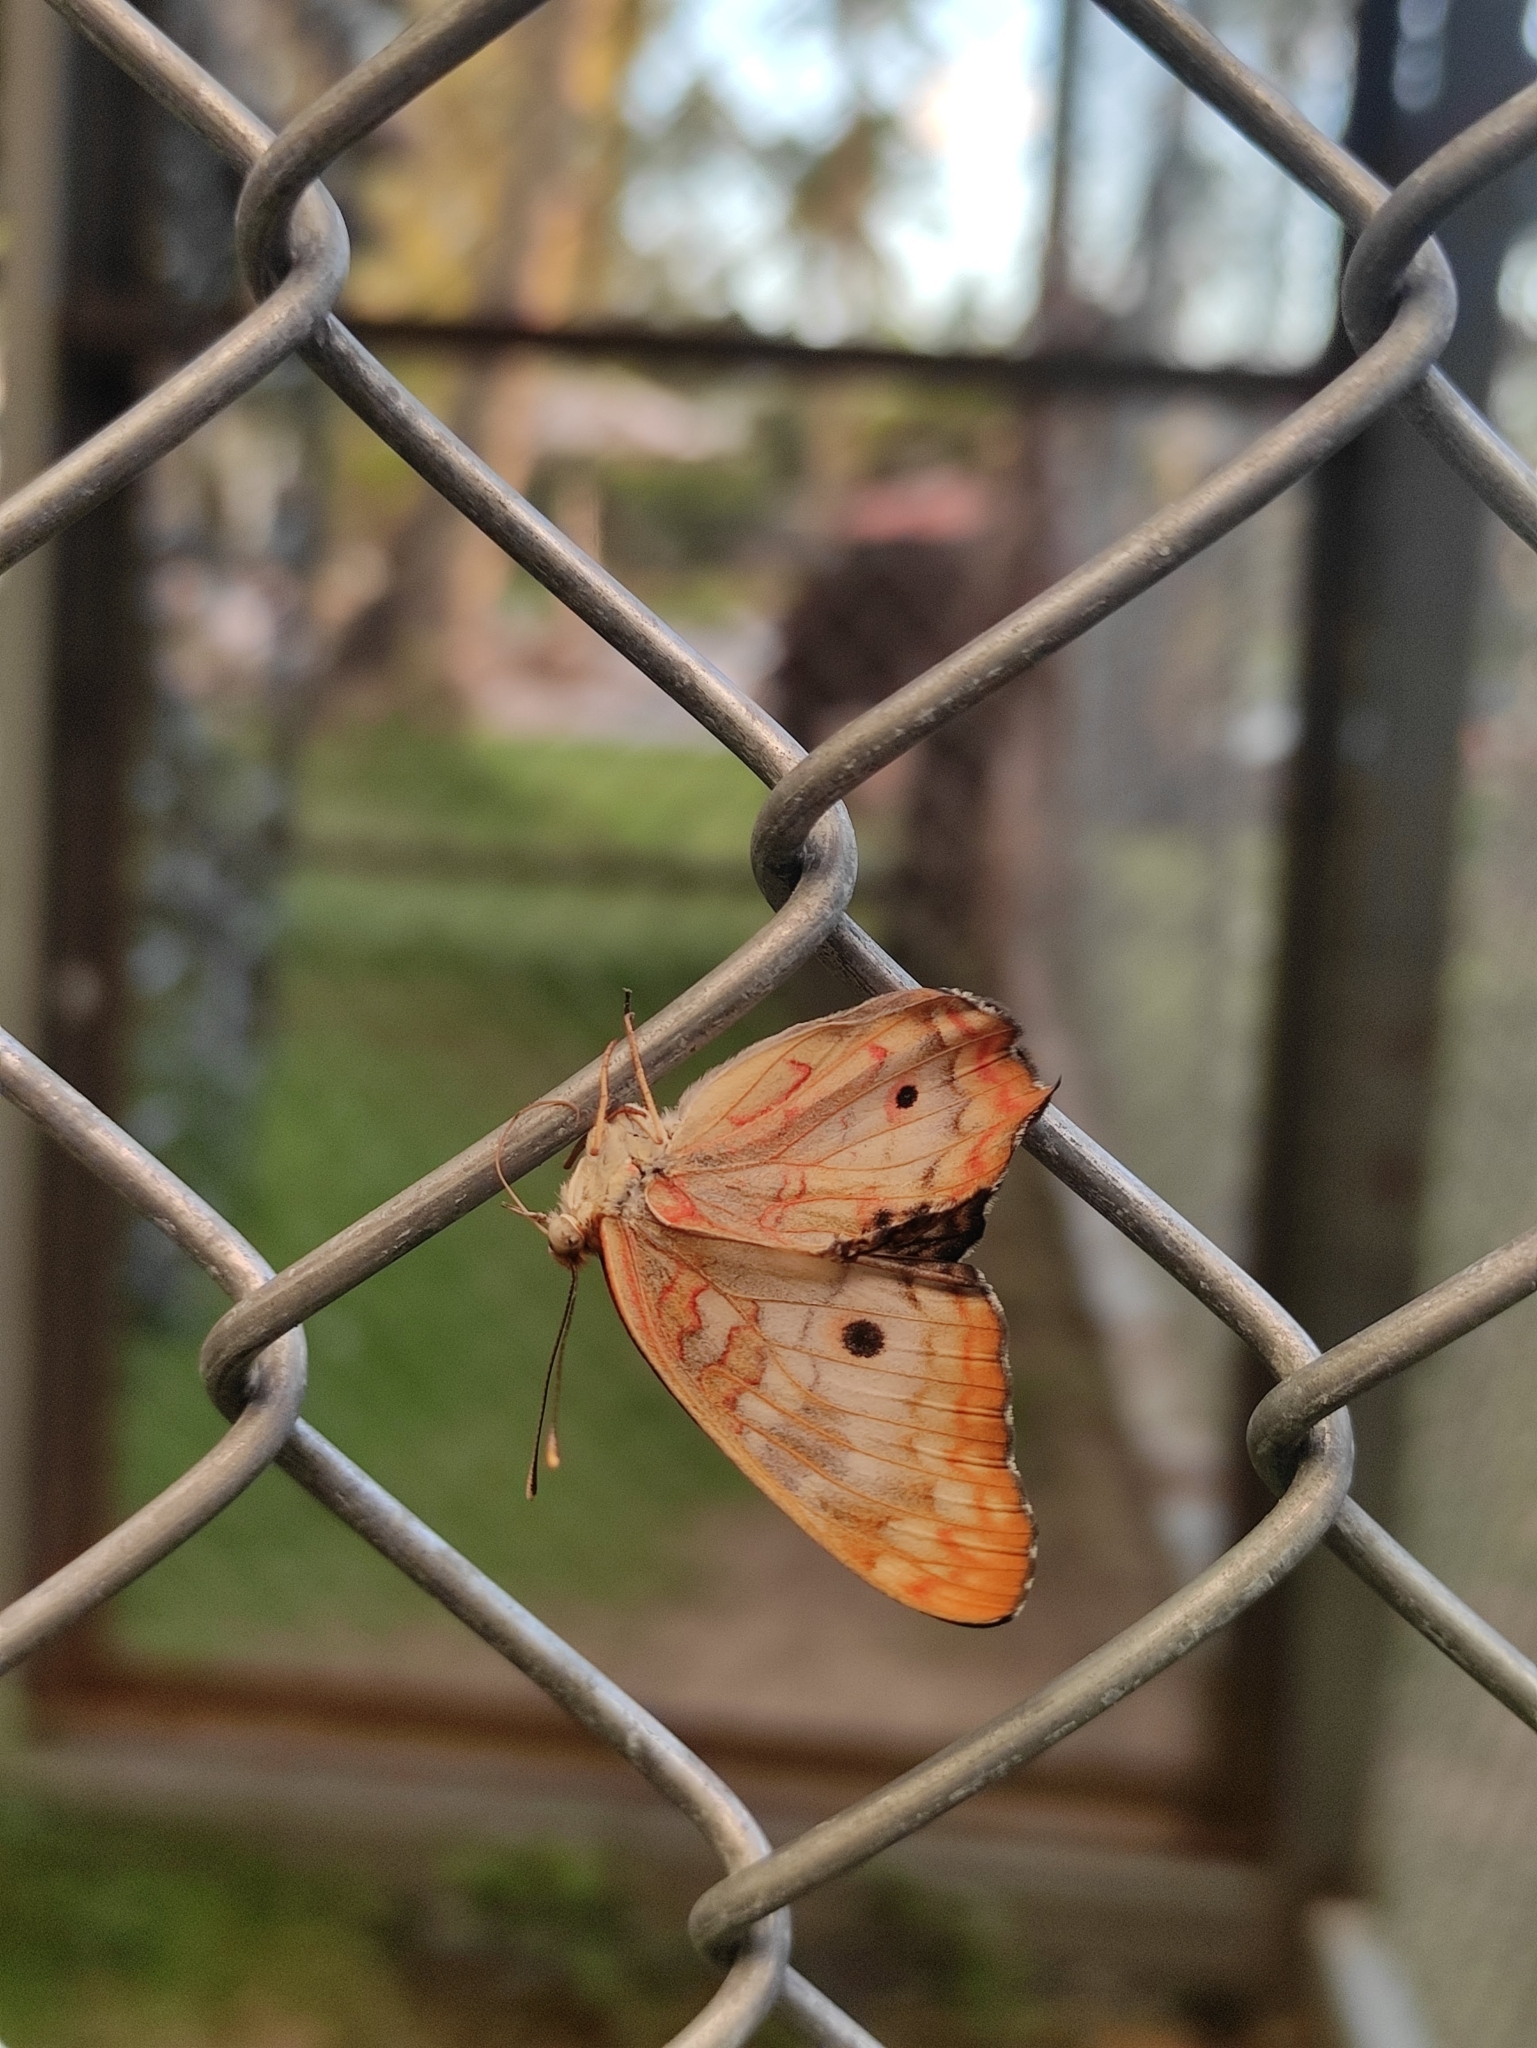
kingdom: Animalia
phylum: Arthropoda
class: Insecta
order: Lepidoptera
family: Nymphalidae
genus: Anartia
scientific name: Anartia jatrophae
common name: White peacock
